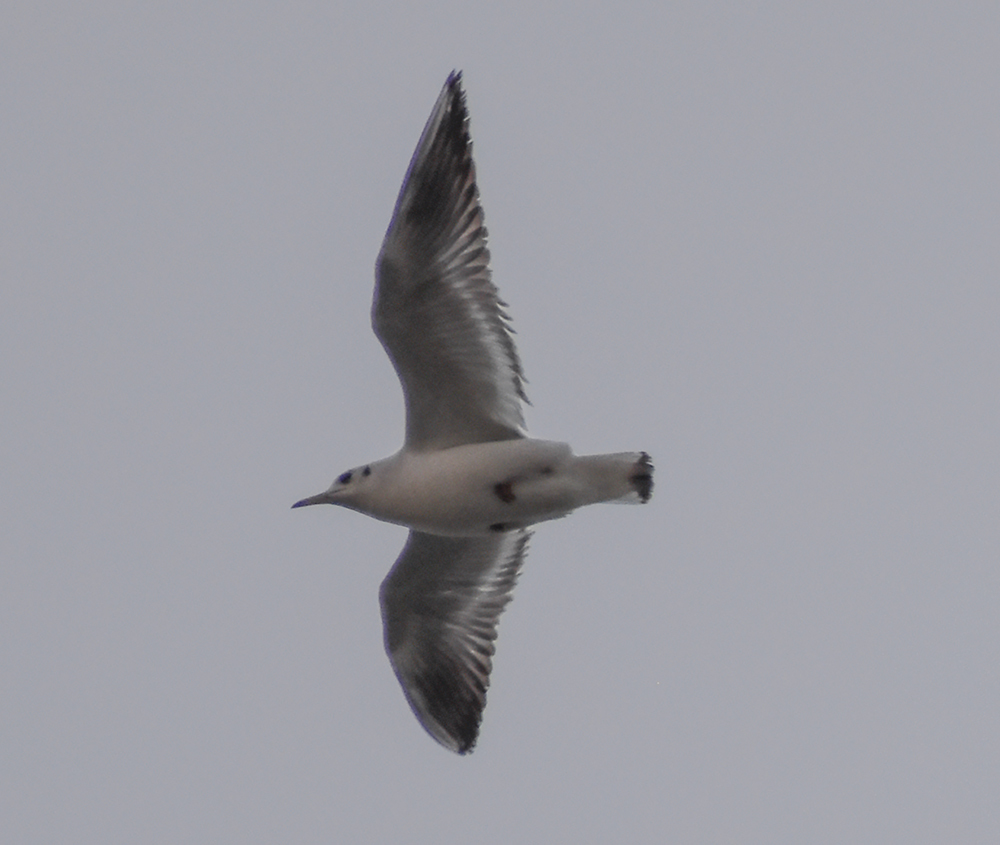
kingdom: Animalia
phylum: Chordata
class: Aves
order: Charadriiformes
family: Laridae
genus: Chroicocephalus
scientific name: Chroicocephalus ridibundus
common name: Black-headed gull
